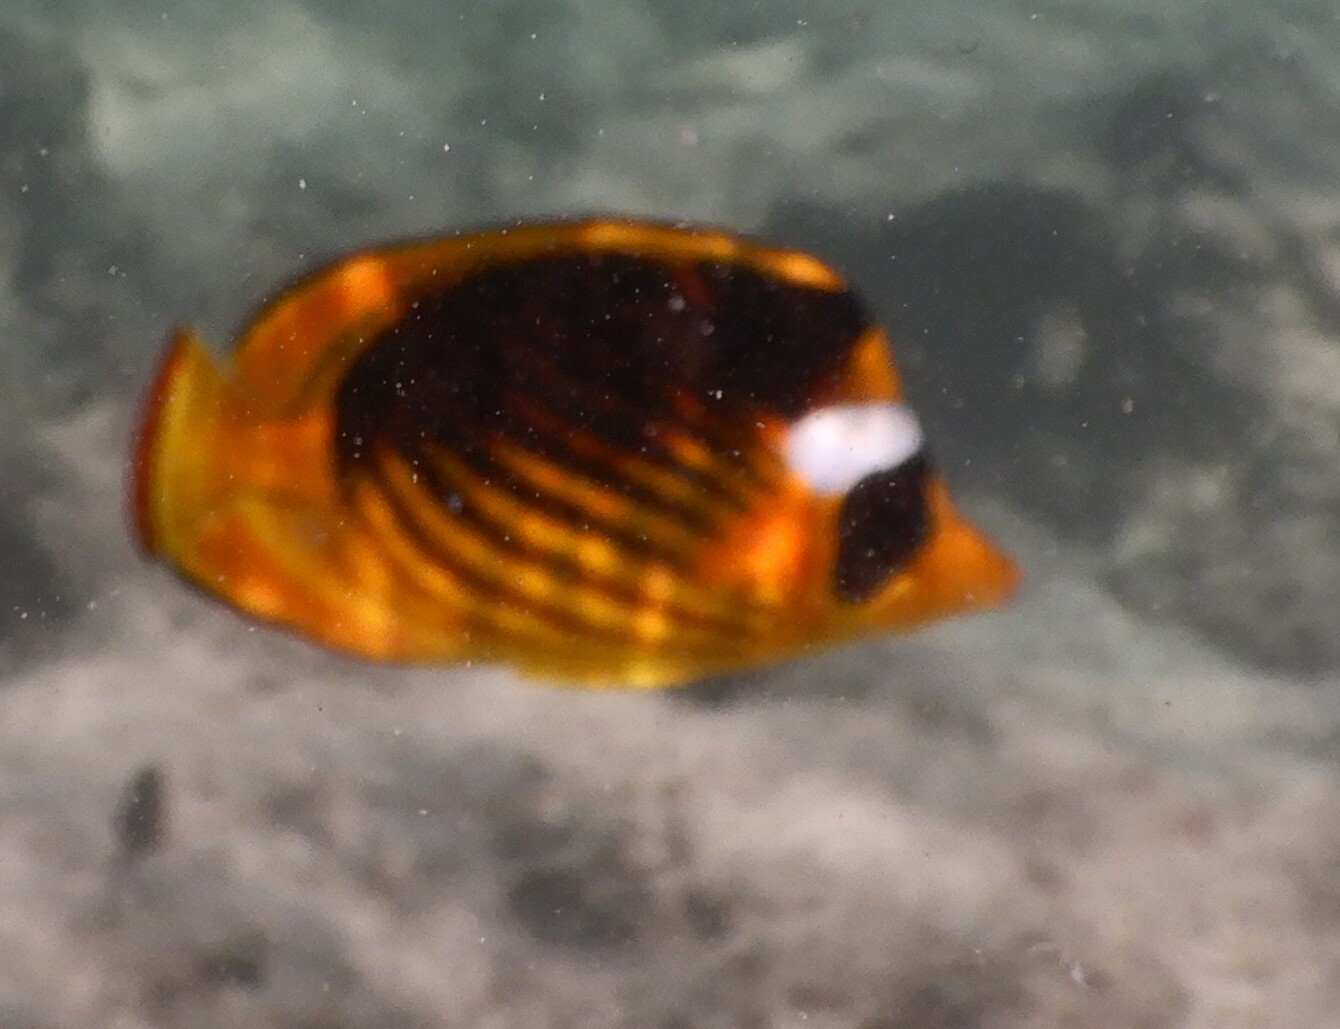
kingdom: Animalia
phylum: Chordata
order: Perciformes
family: Chaetodontidae
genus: Chaetodon
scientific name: Chaetodon fasciatus
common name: Diagonal butterflyfish
